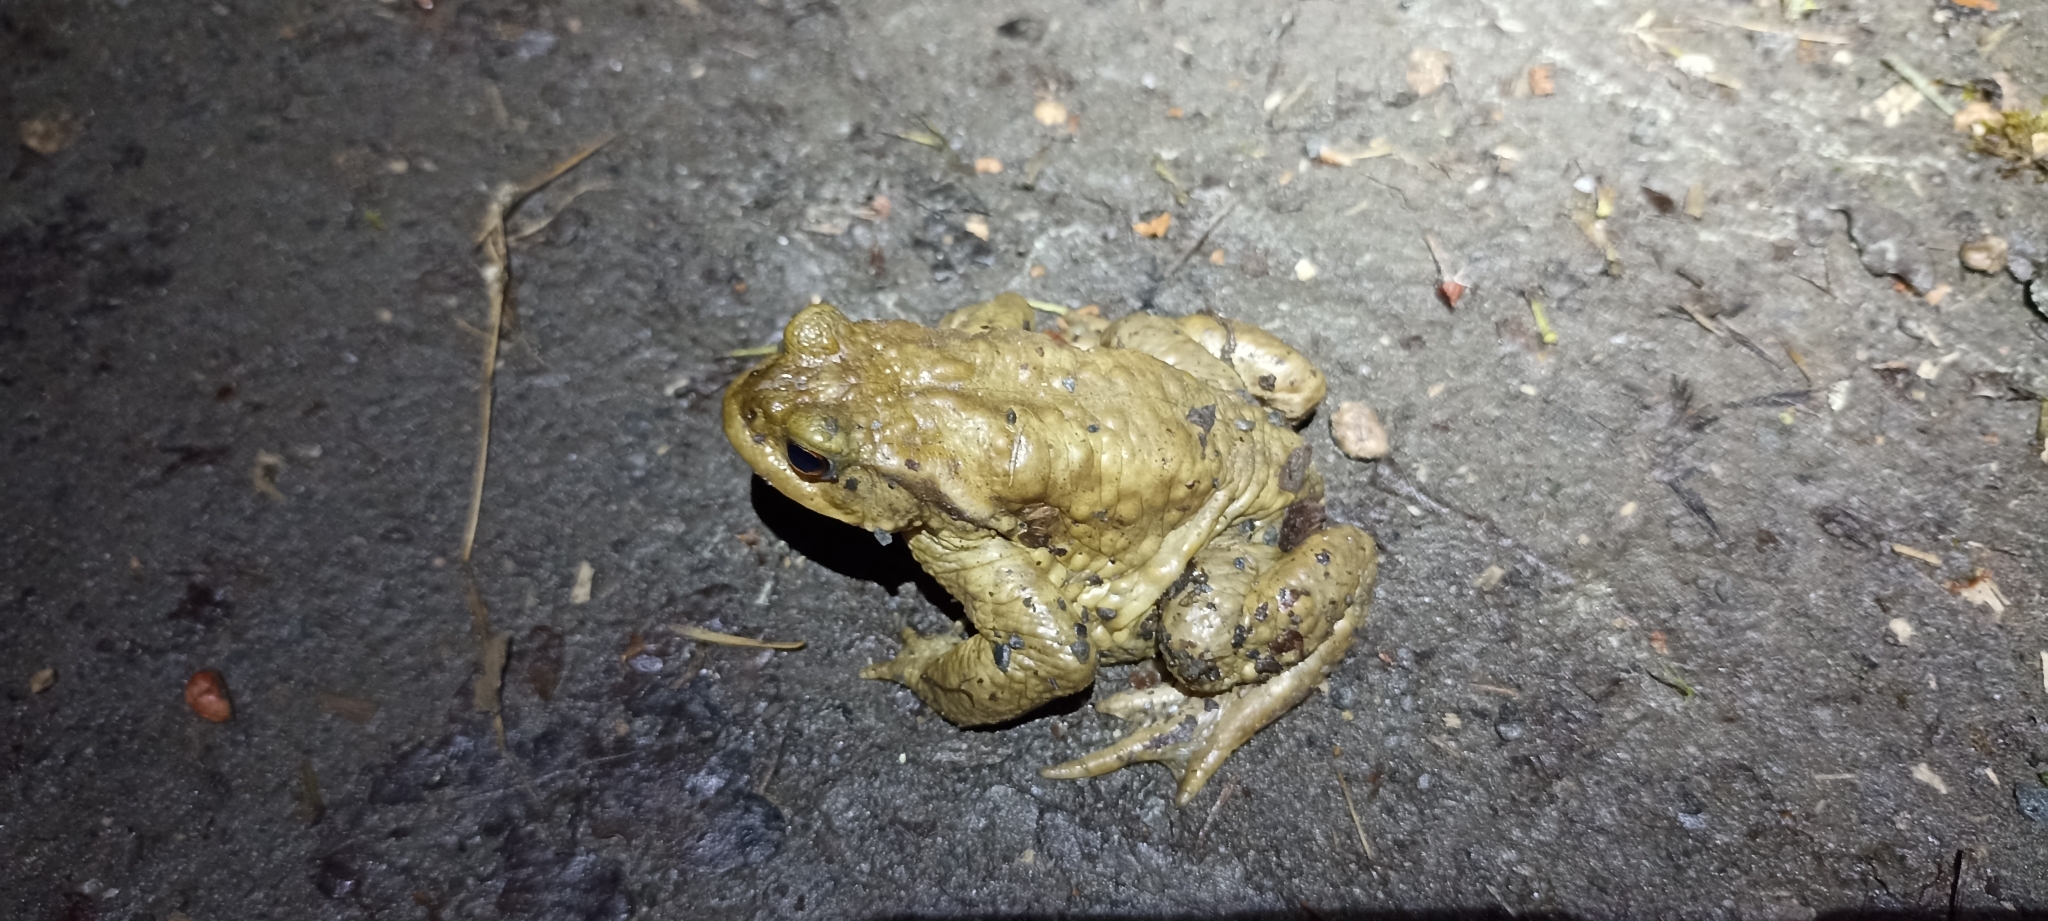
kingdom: Animalia
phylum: Chordata
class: Amphibia
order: Anura
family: Bufonidae
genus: Bufo
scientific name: Bufo spinosus
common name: Western common toad
